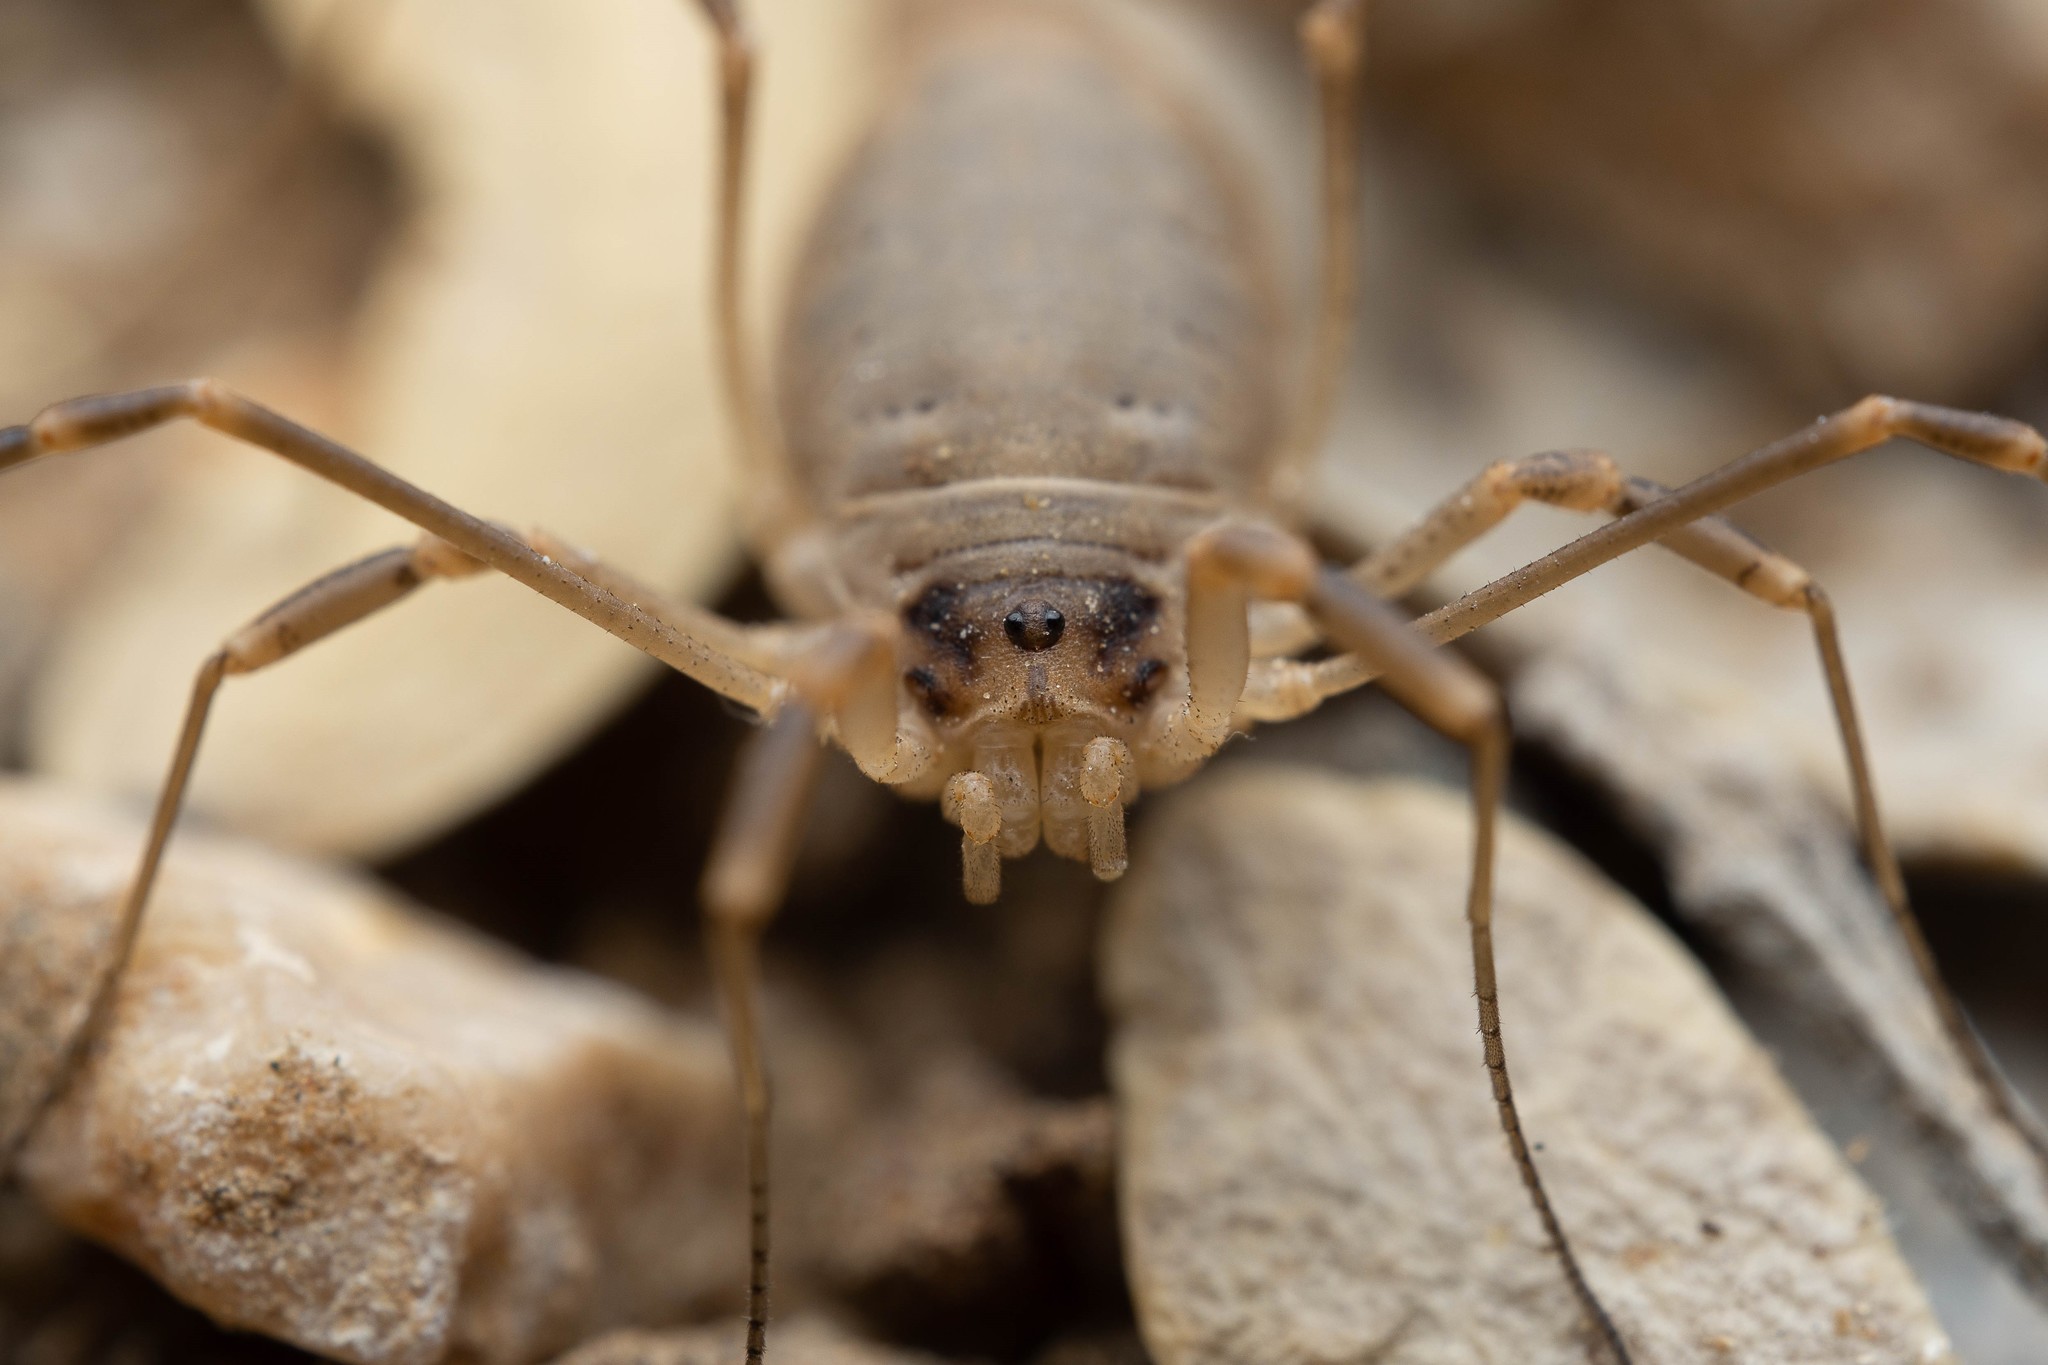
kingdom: Animalia
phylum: Arthropoda
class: Arachnida
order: Opiliones
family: Globipedidae
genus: Eurybunus
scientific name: Eurybunus pallidus
